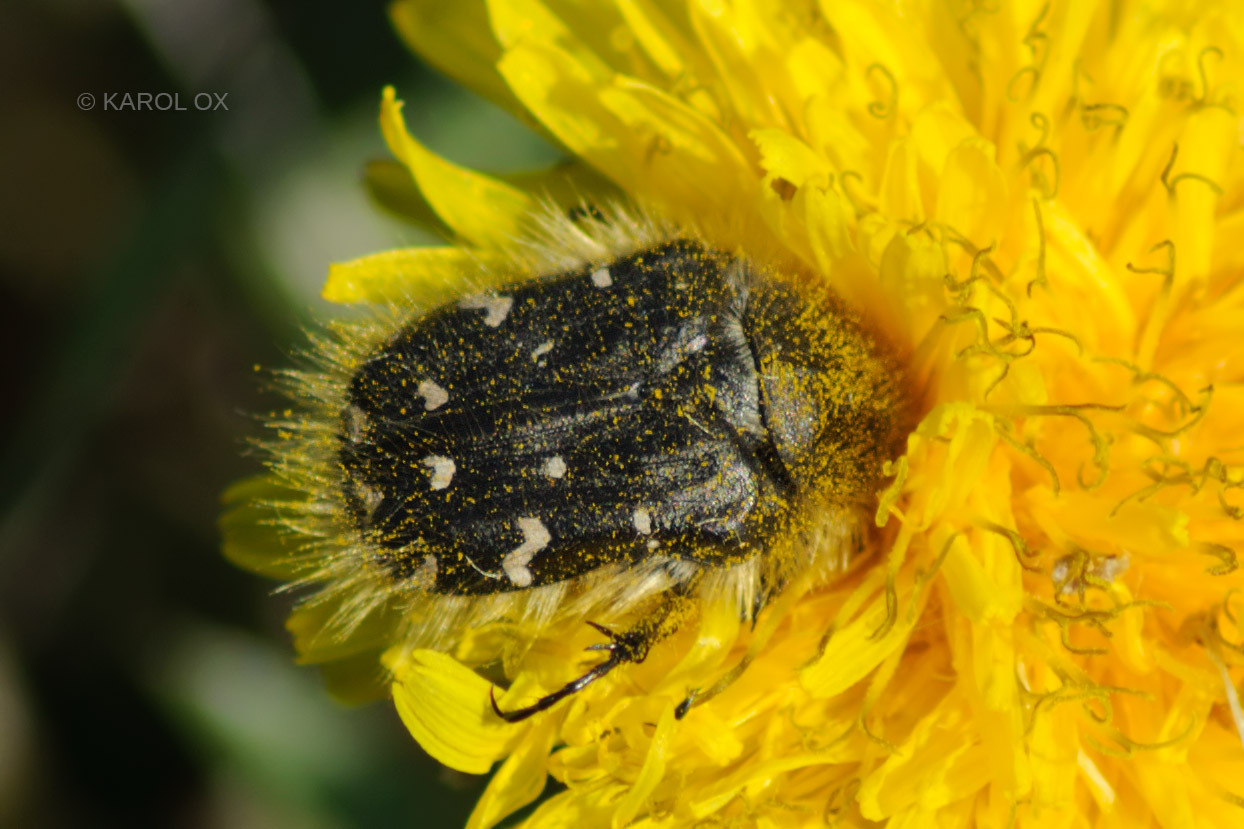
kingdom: Animalia
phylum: Arthropoda
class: Insecta
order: Coleoptera
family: Scarabaeidae
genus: Tropinota
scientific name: Tropinota hirta
